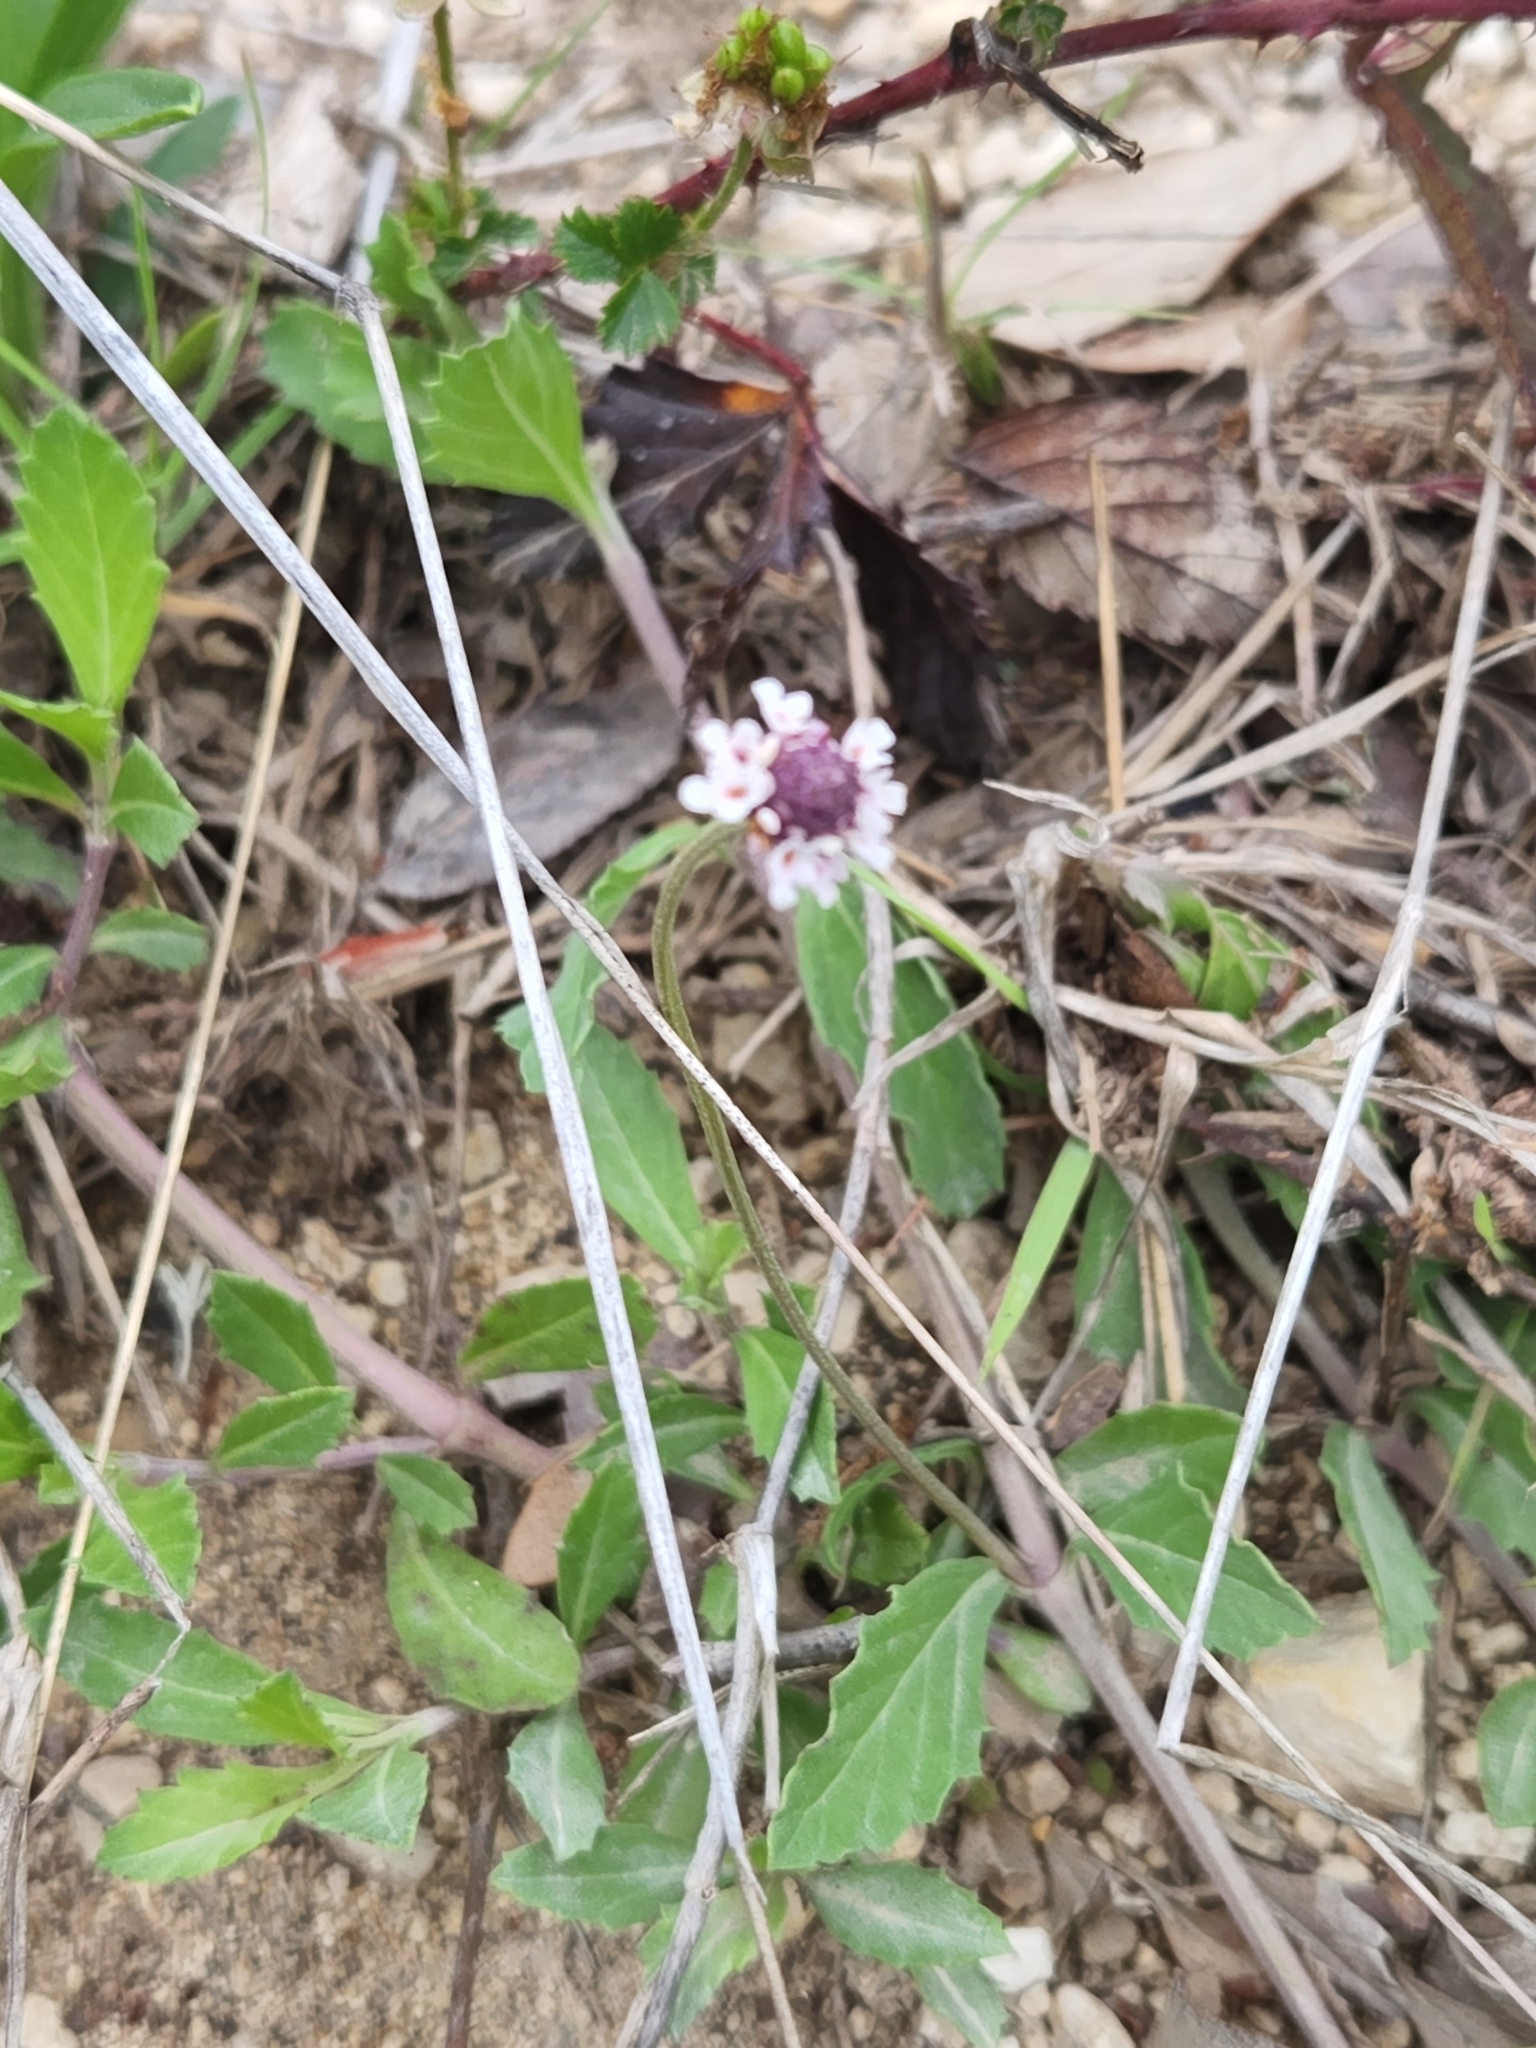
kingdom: Plantae
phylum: Tracheophyta
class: Magnoliopsida
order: Lamiales
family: Verbenaceae
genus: Phyla
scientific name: Phyla nodiflora
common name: Frogfruit
